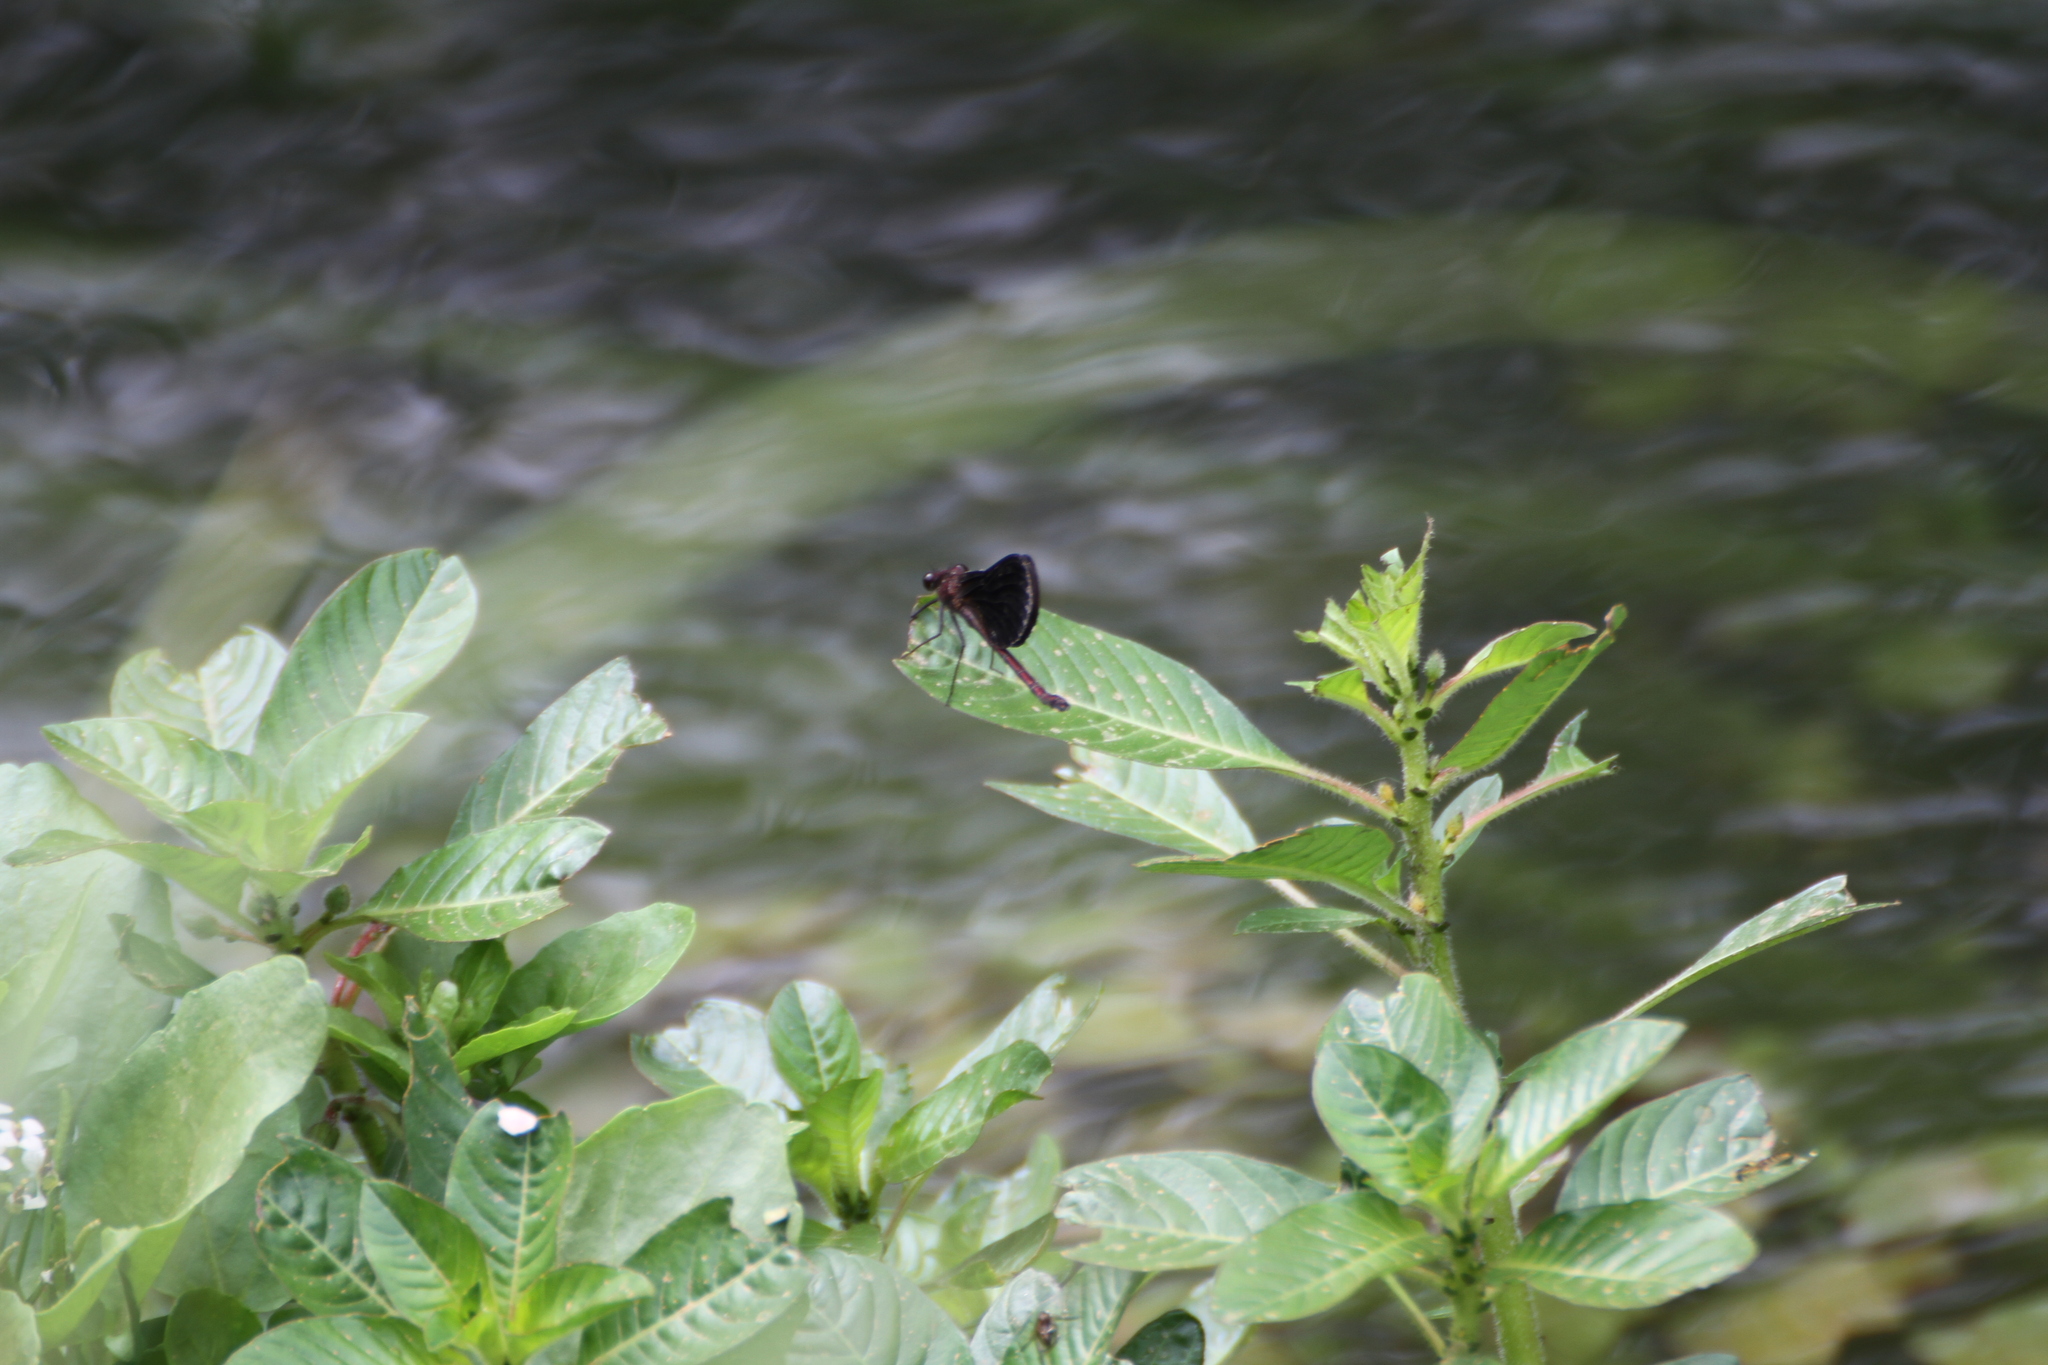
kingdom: Animalia
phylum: Arthropoda
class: Insecta
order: Odonata
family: Calopterygidae
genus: Calopteryx
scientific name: Calopteryx haemorrhoidalis
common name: Copper demoiselle
